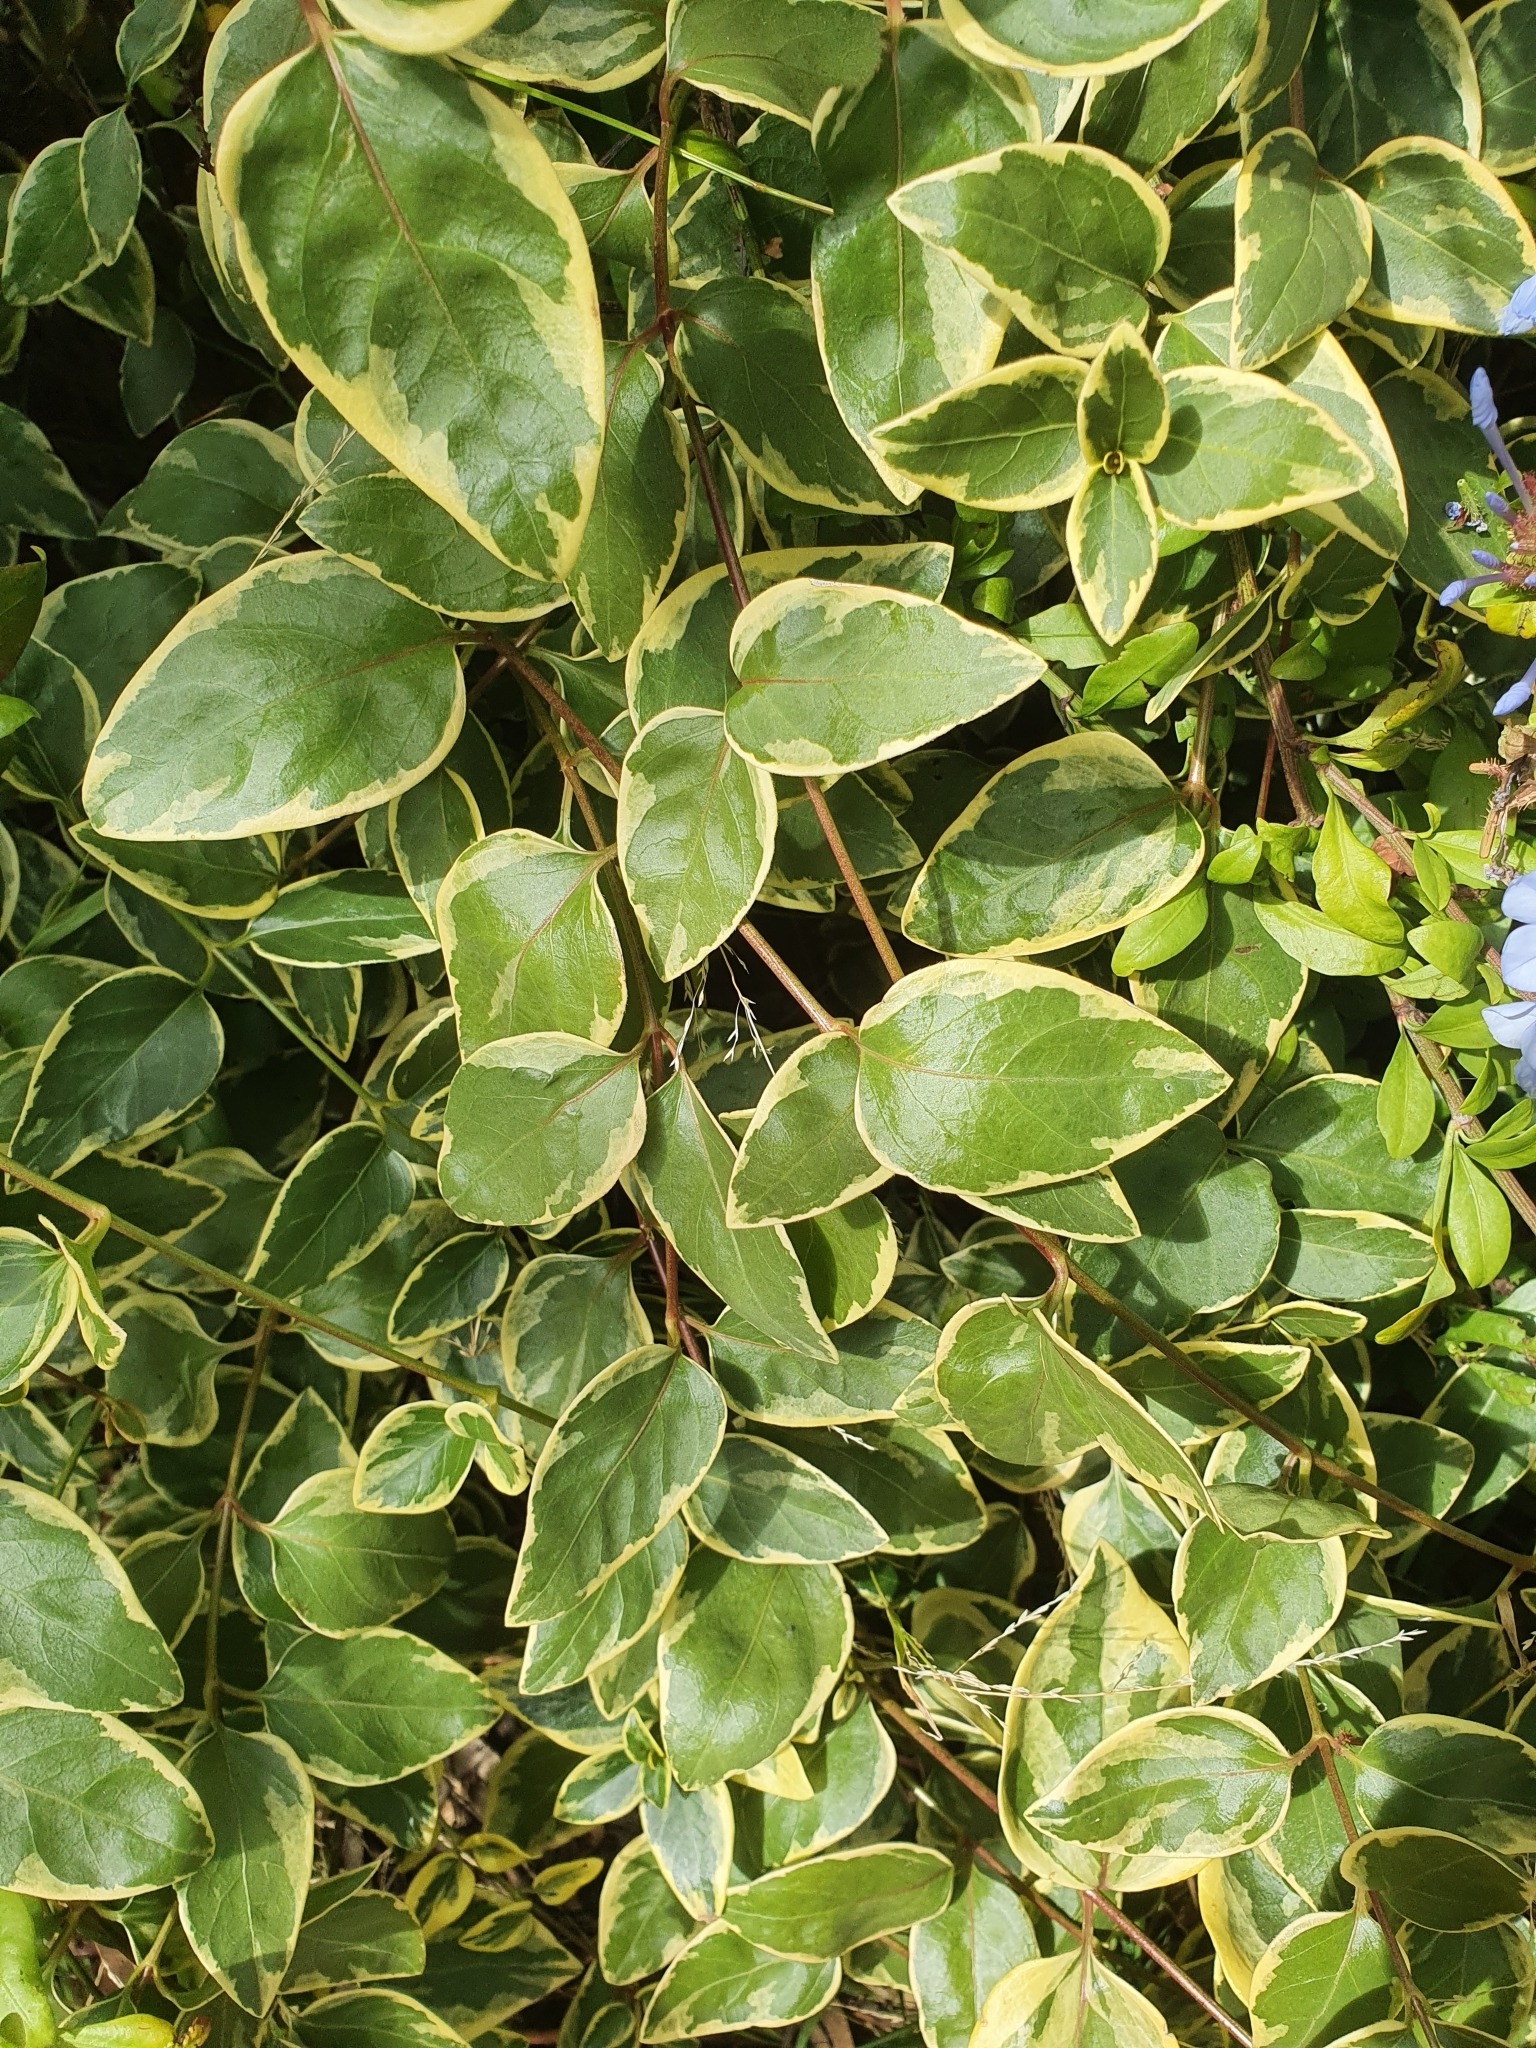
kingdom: Plantae
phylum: Tracheophyta
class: Magnoliopsida
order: Gentianales
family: Apocynaceae
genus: Vinca
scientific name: Vinca major
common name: Greater periwinkle
